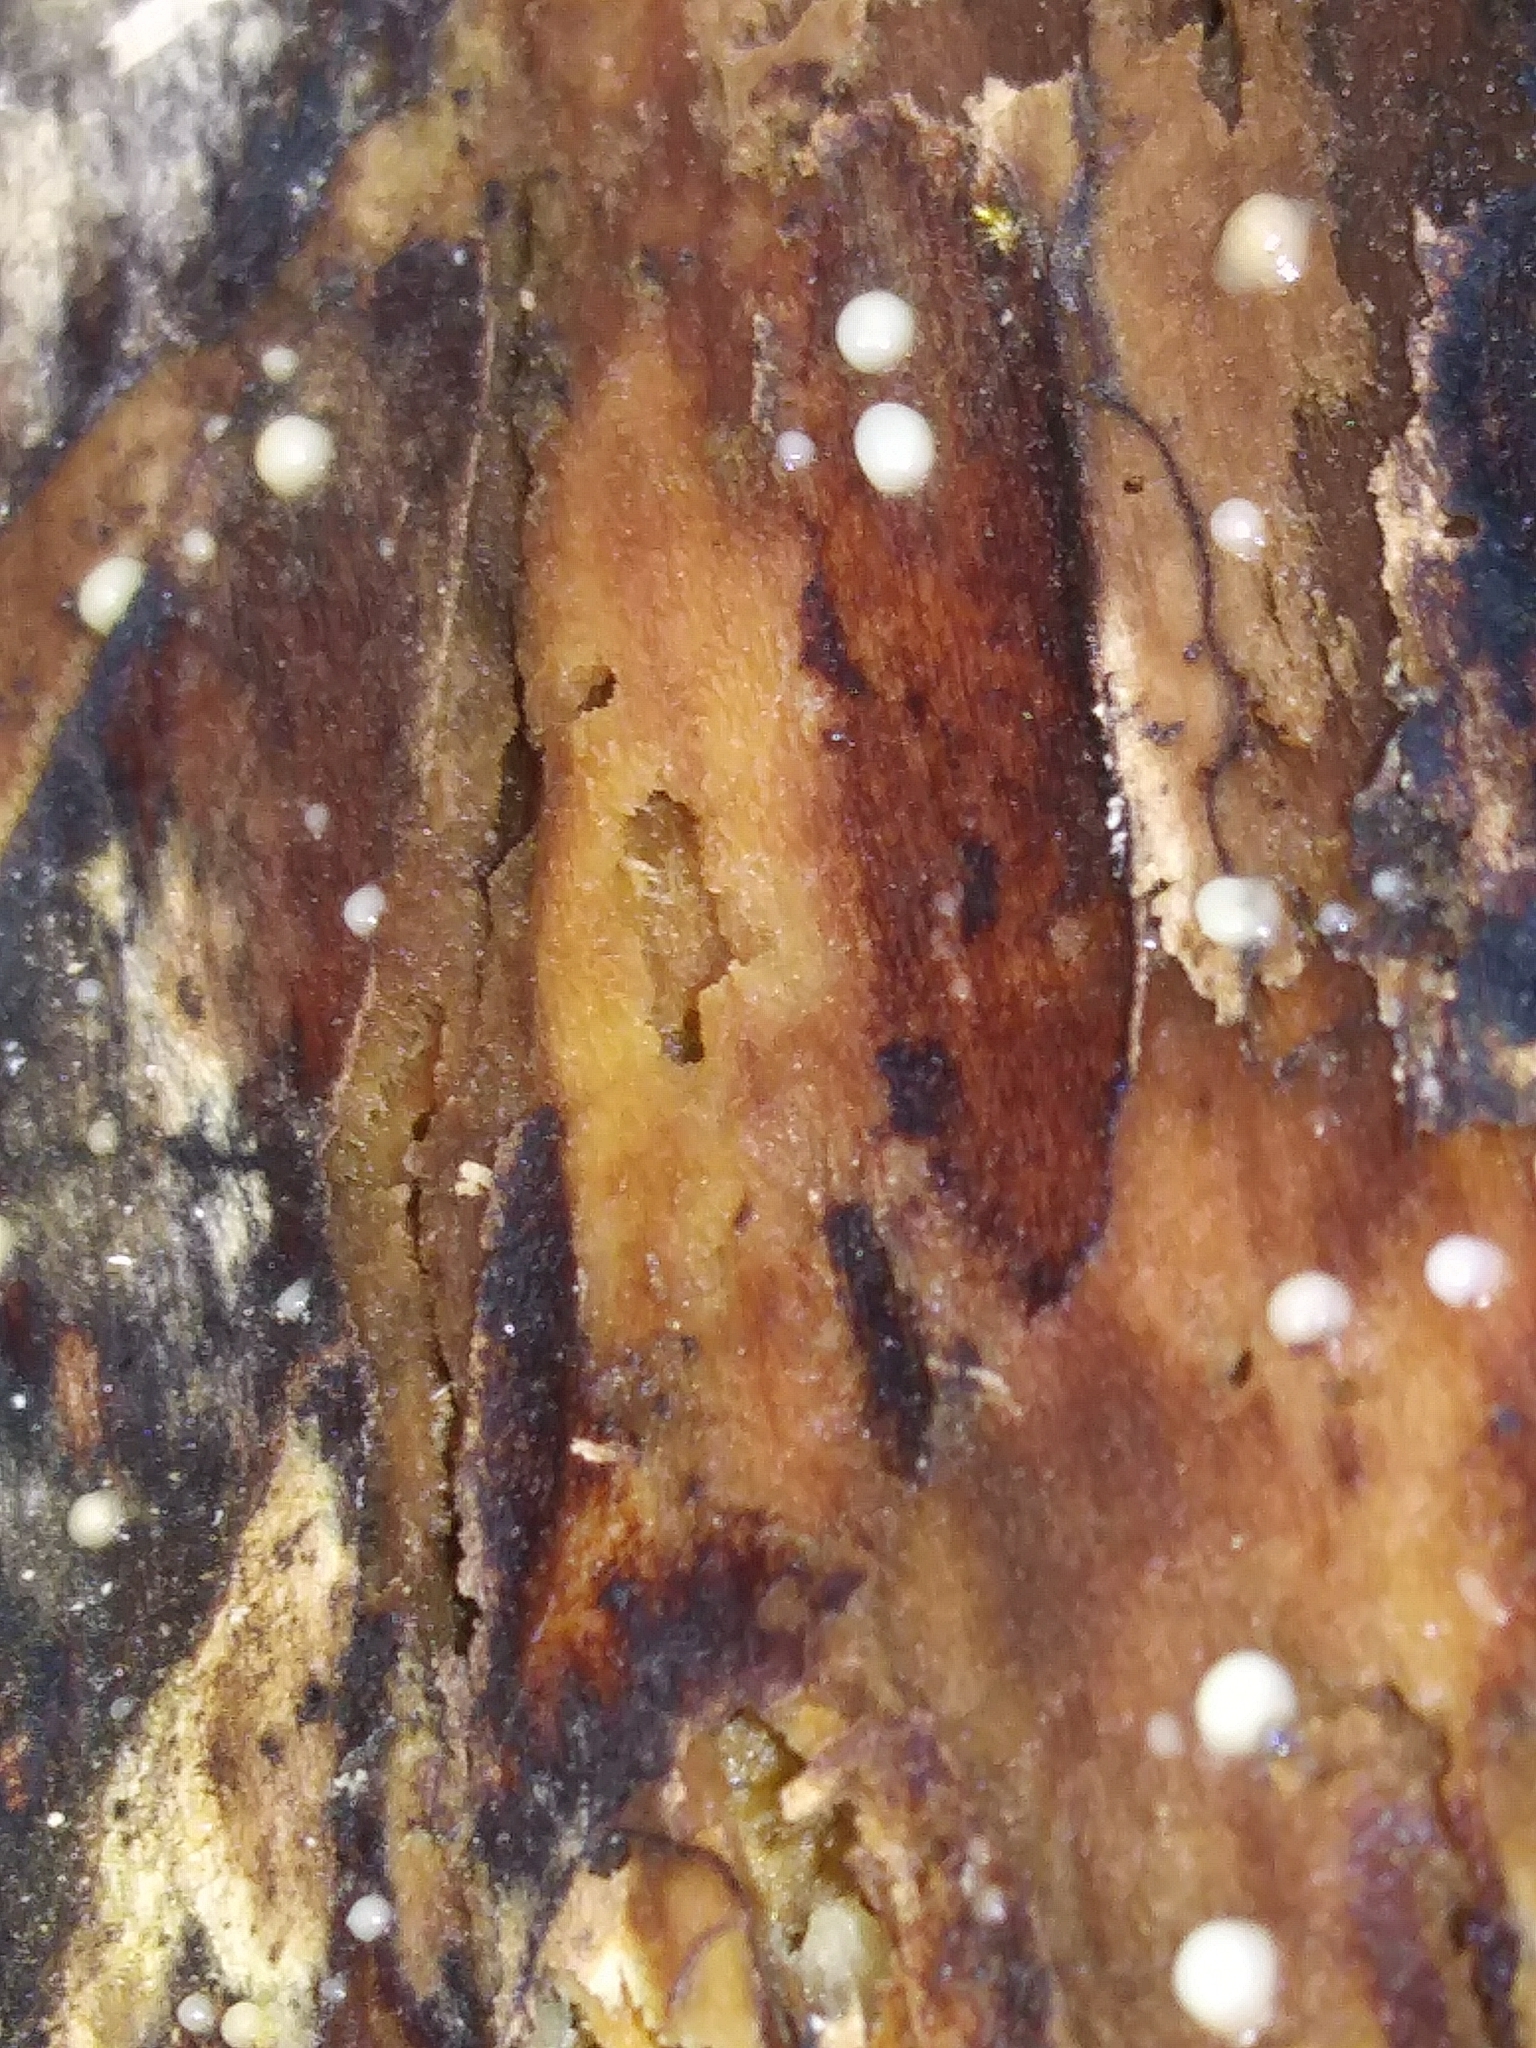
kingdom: Fungi
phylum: Basidiomycota
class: Atractiellomycetes
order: Atractiellales
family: Phleogenaceae
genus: Helicogloea
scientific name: Helicogloea compressa
